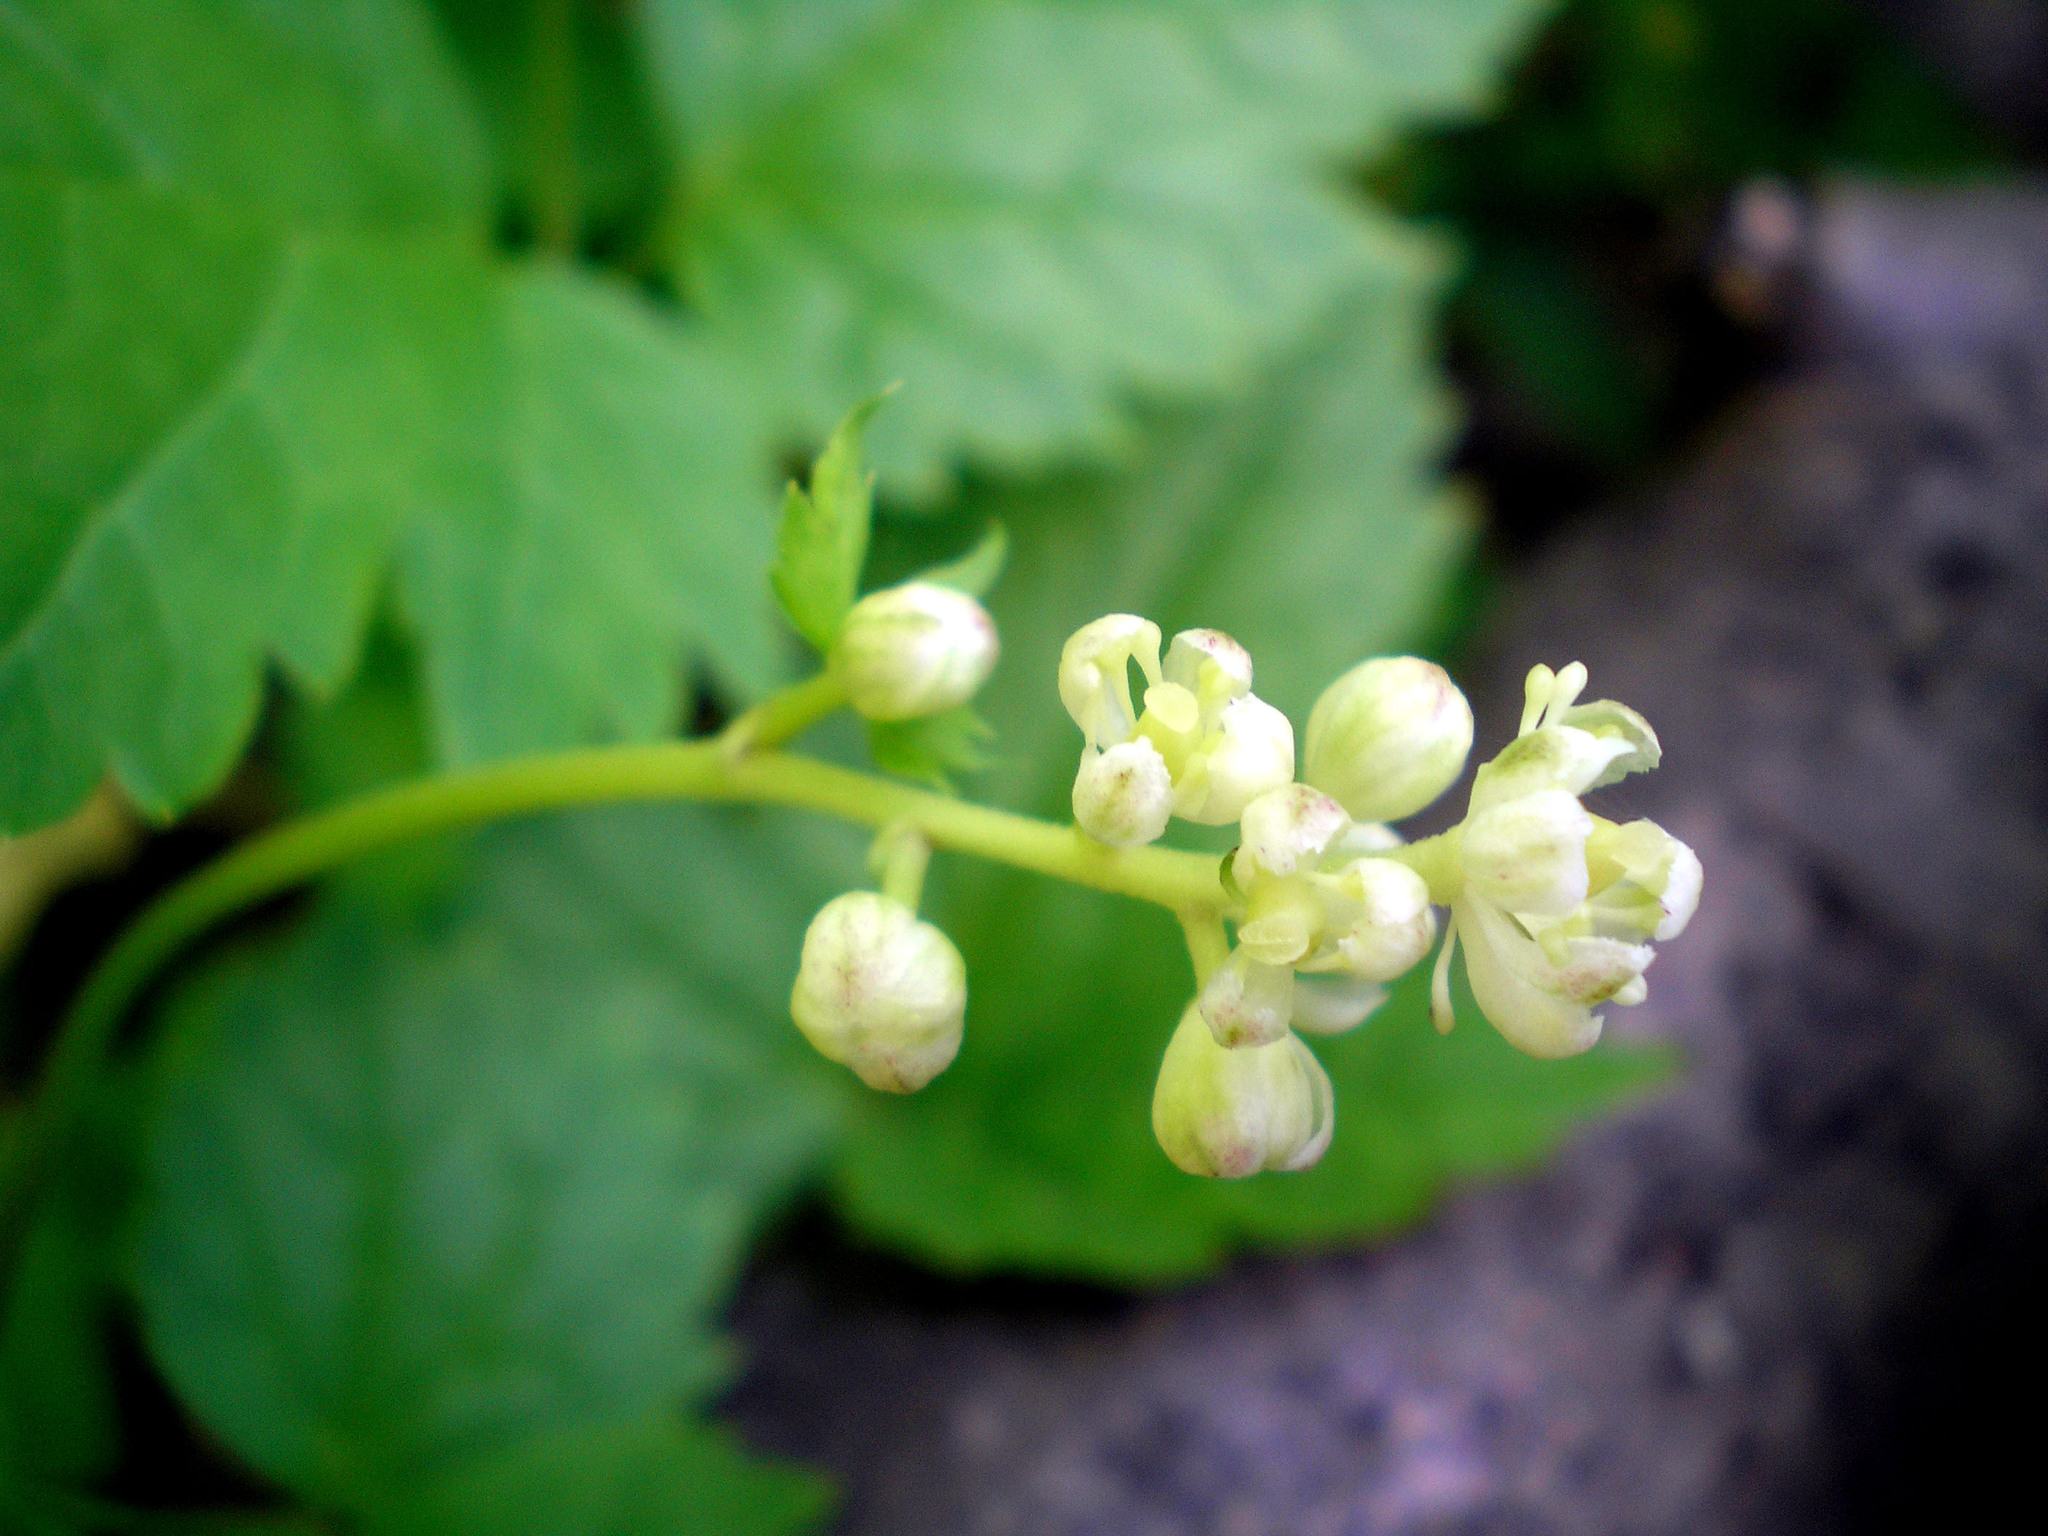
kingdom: Plantae
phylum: Tracheophyta
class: Magnoliopsida
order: Ranunculales
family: Ranunculaceae
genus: Actaea
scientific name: Actaea spicata
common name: Baneberry
